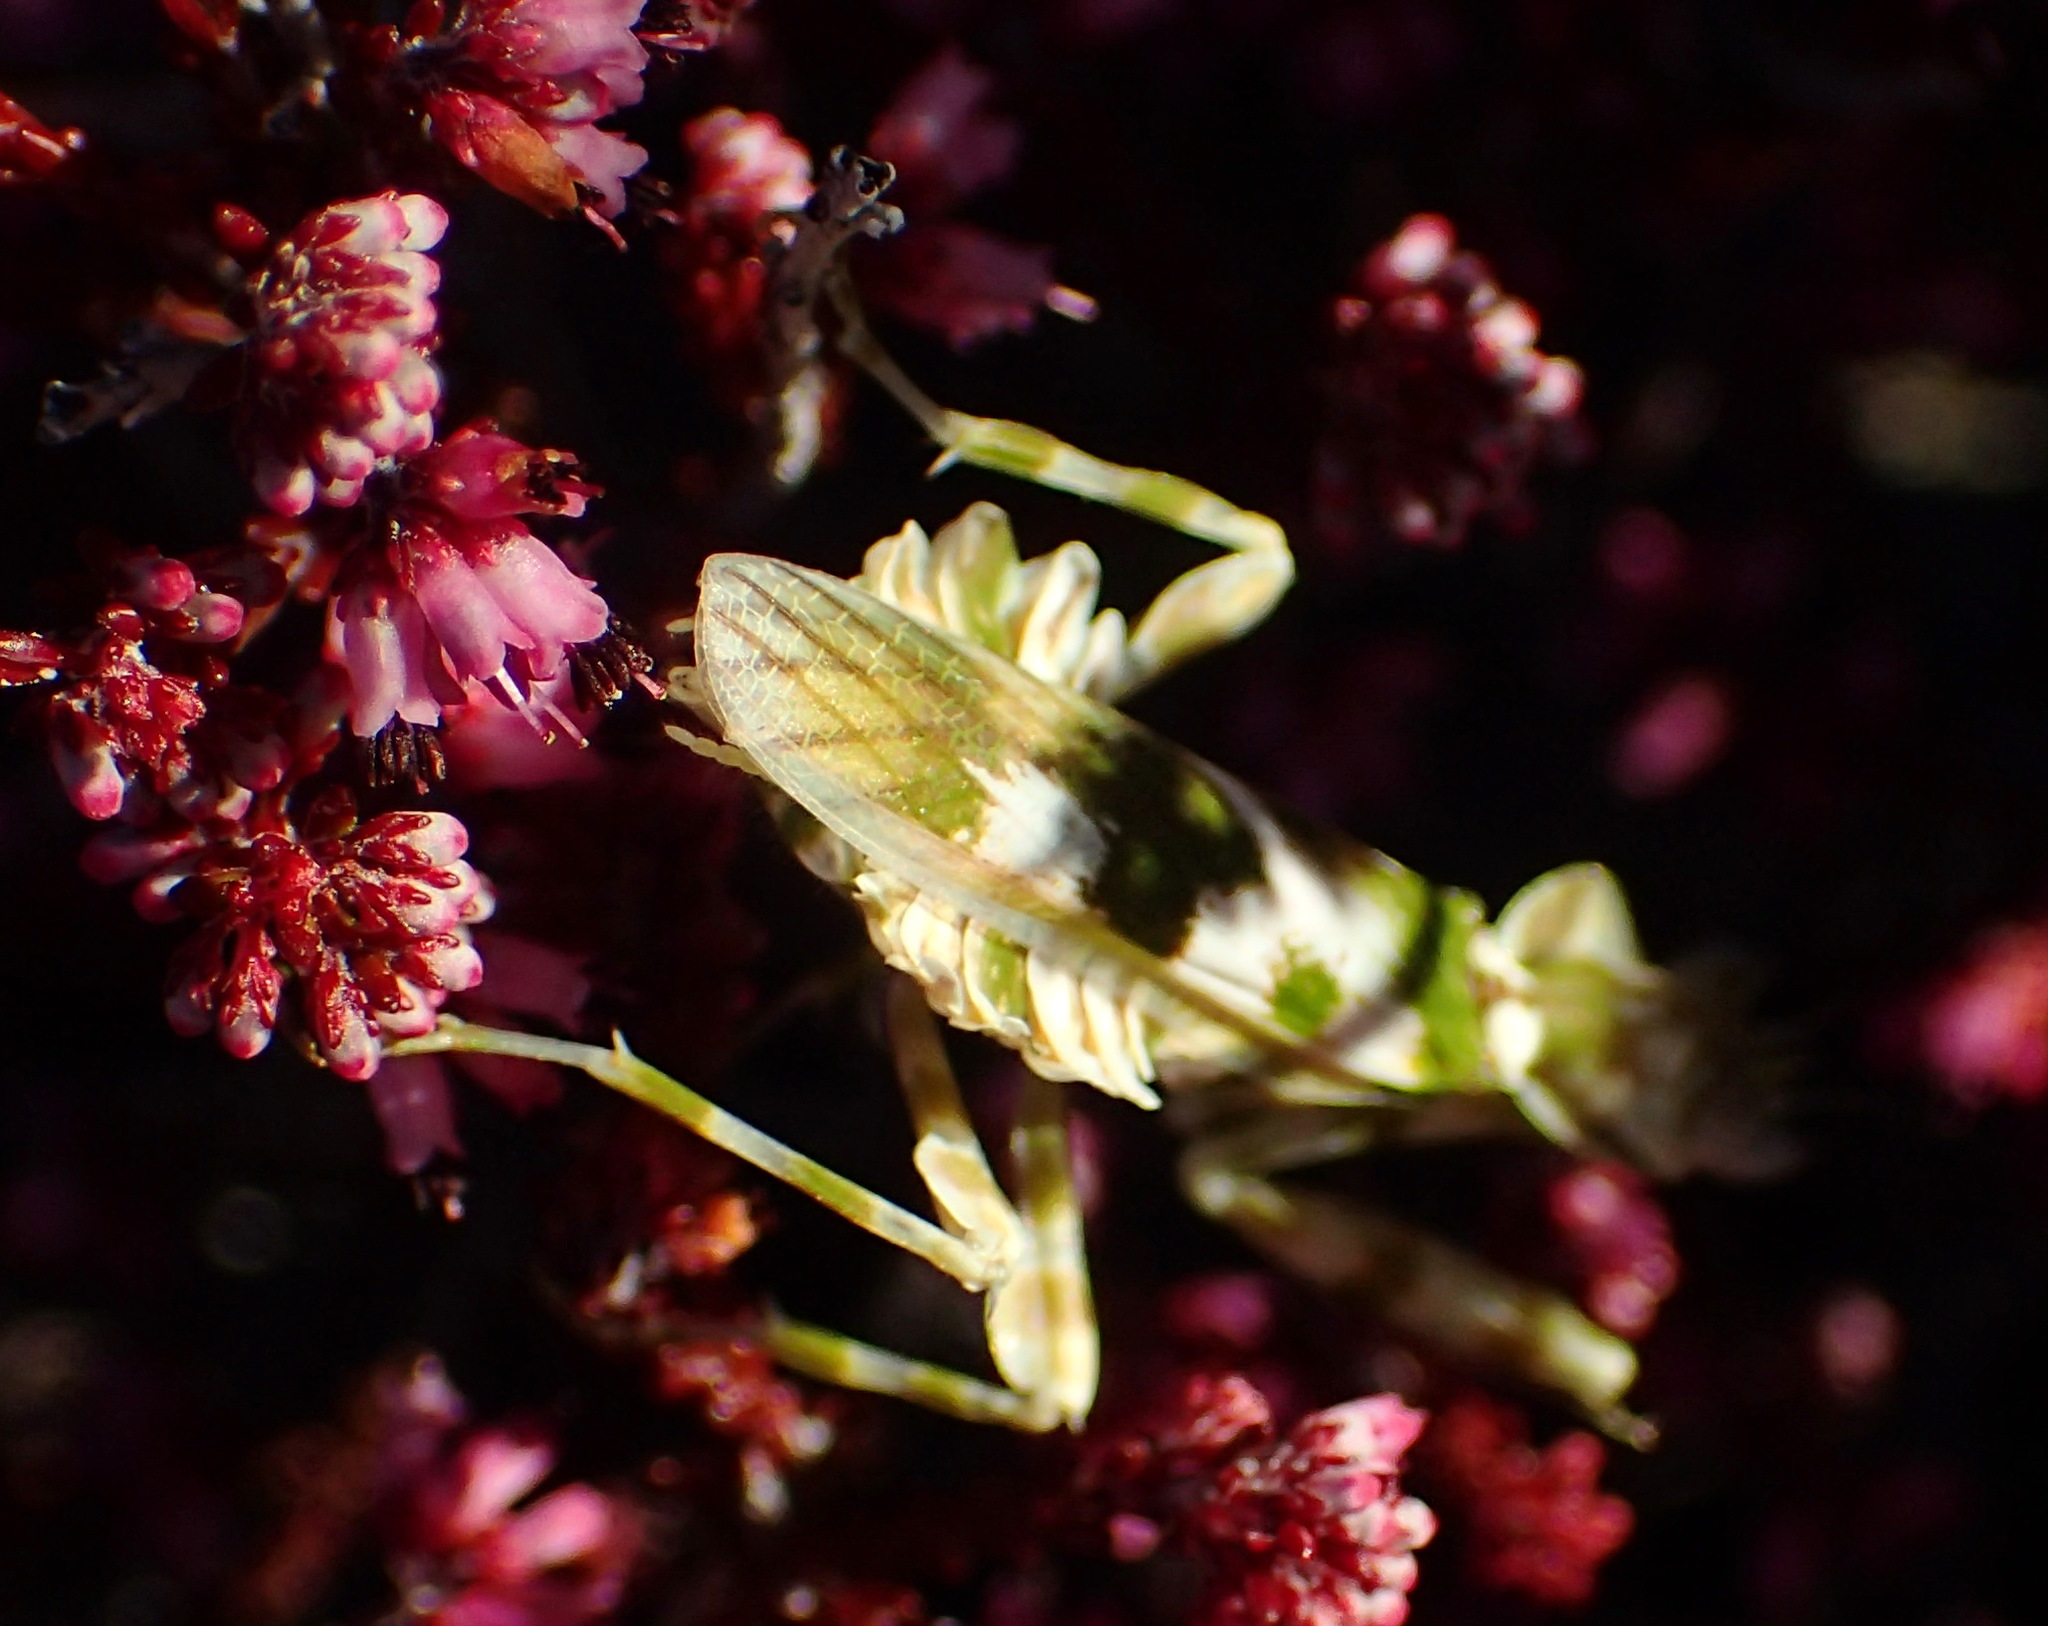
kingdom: Animalia
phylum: Arthropoda
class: Insecta
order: Mantodea
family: Galinthiadidae
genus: Harpagomantis
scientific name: Harpagomantis tricolor
